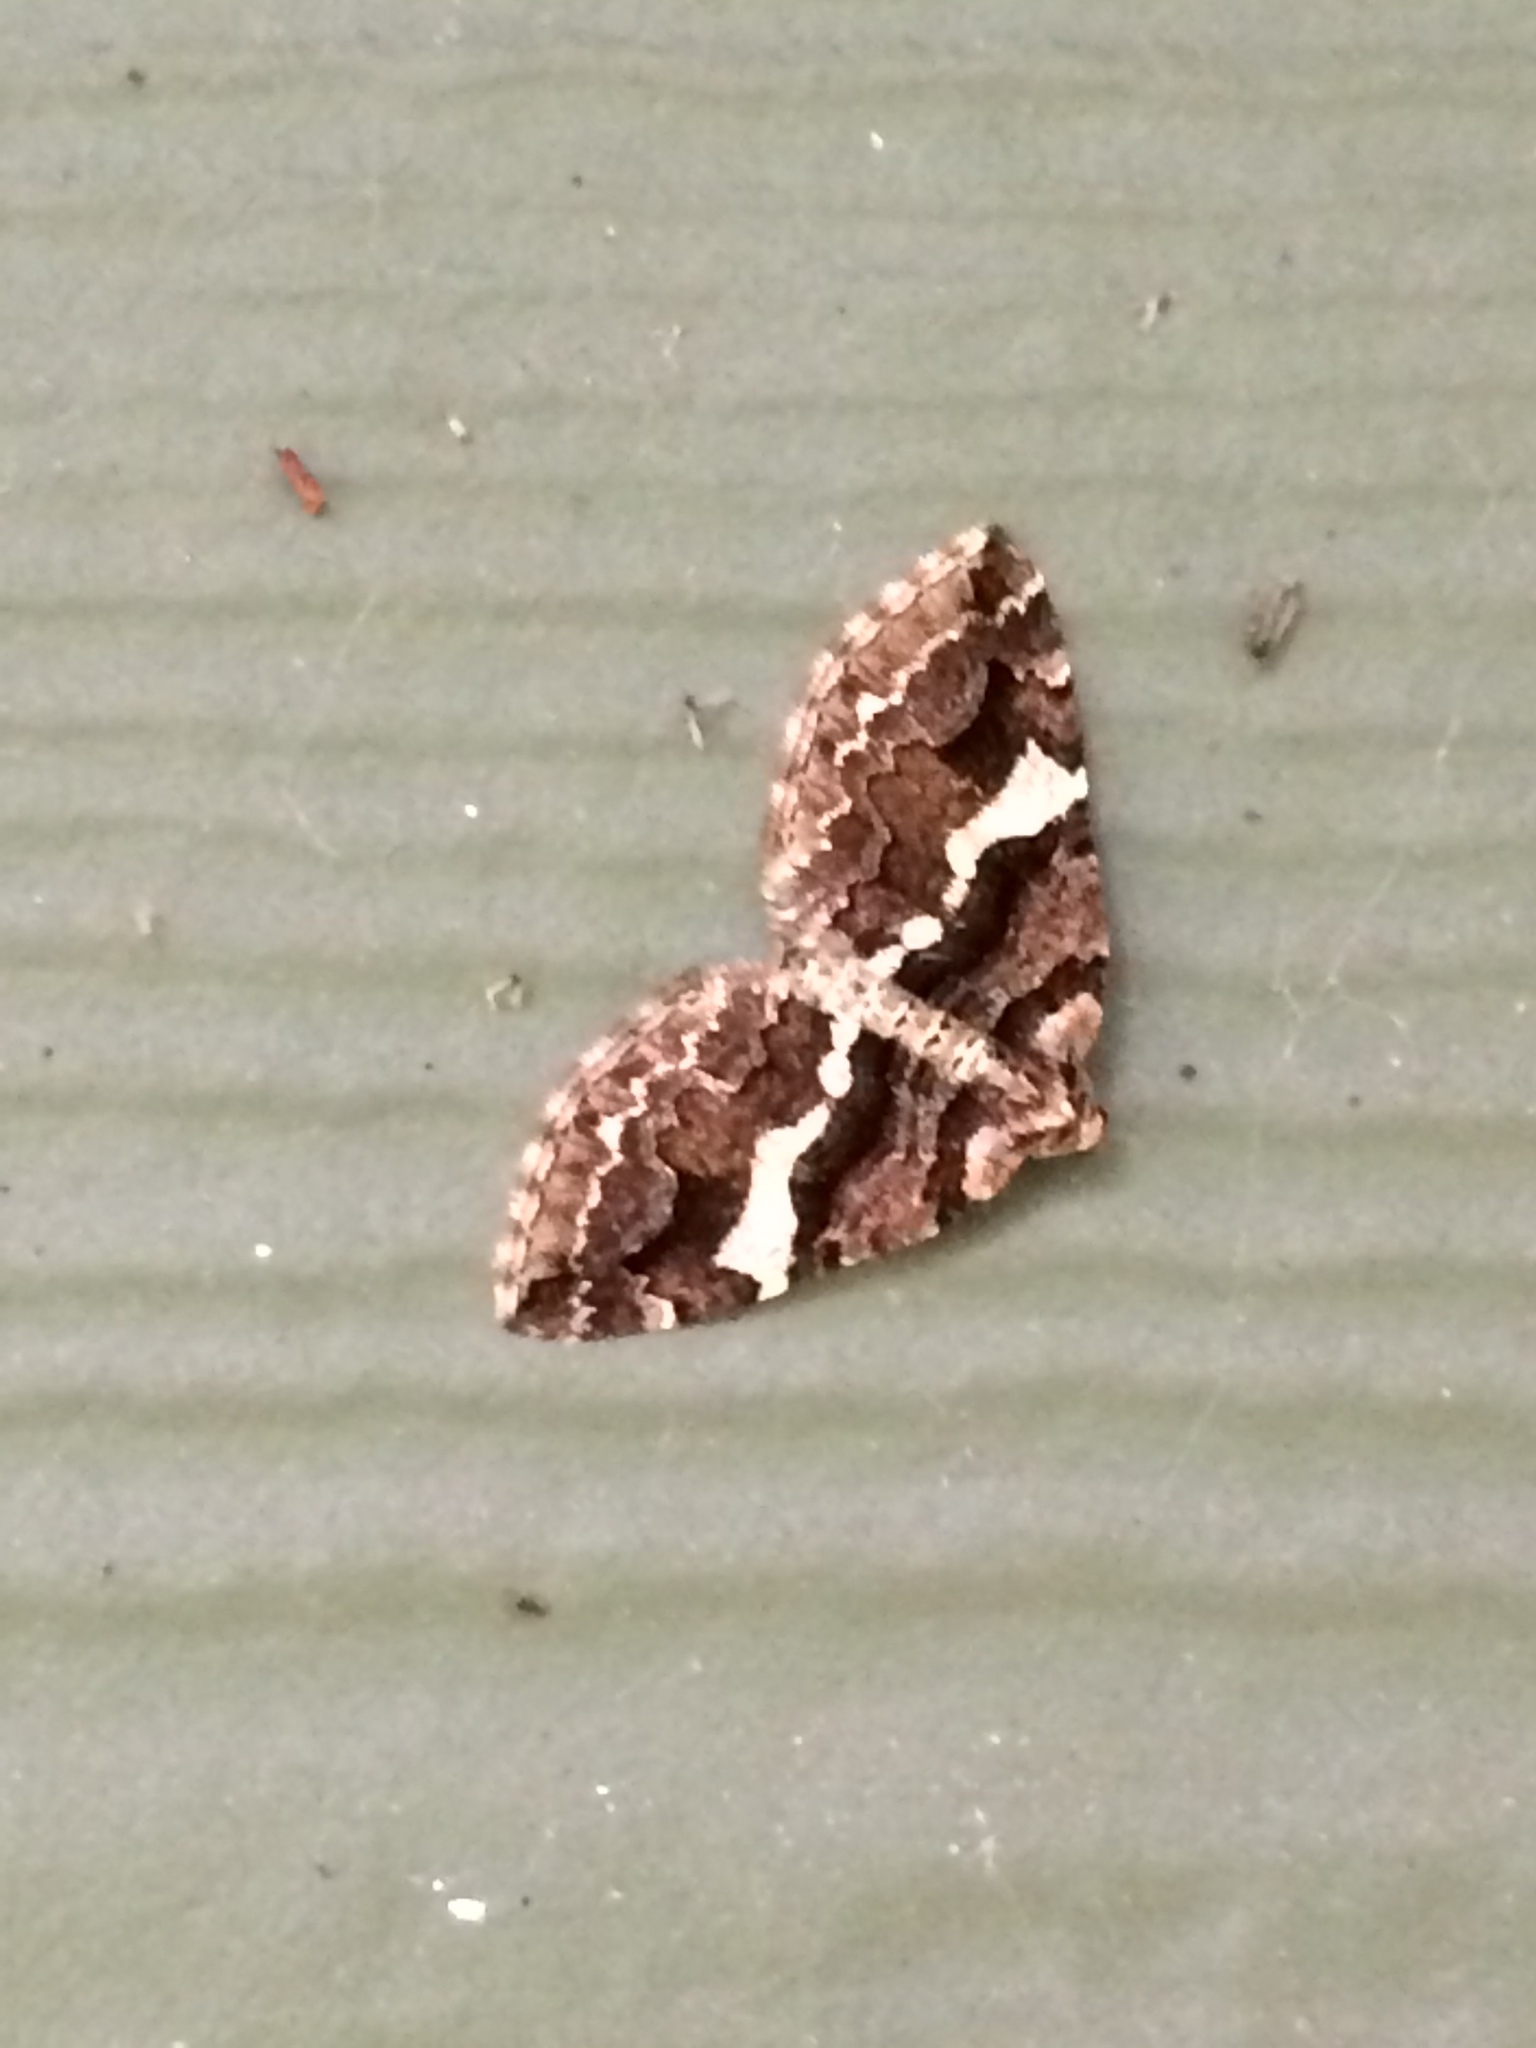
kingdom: Animalia
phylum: Arthropoda
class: Insecta
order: Lepidoptera
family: Geometridae
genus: Anticlea
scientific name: Anticlea vasiliata
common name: Variable carpet
